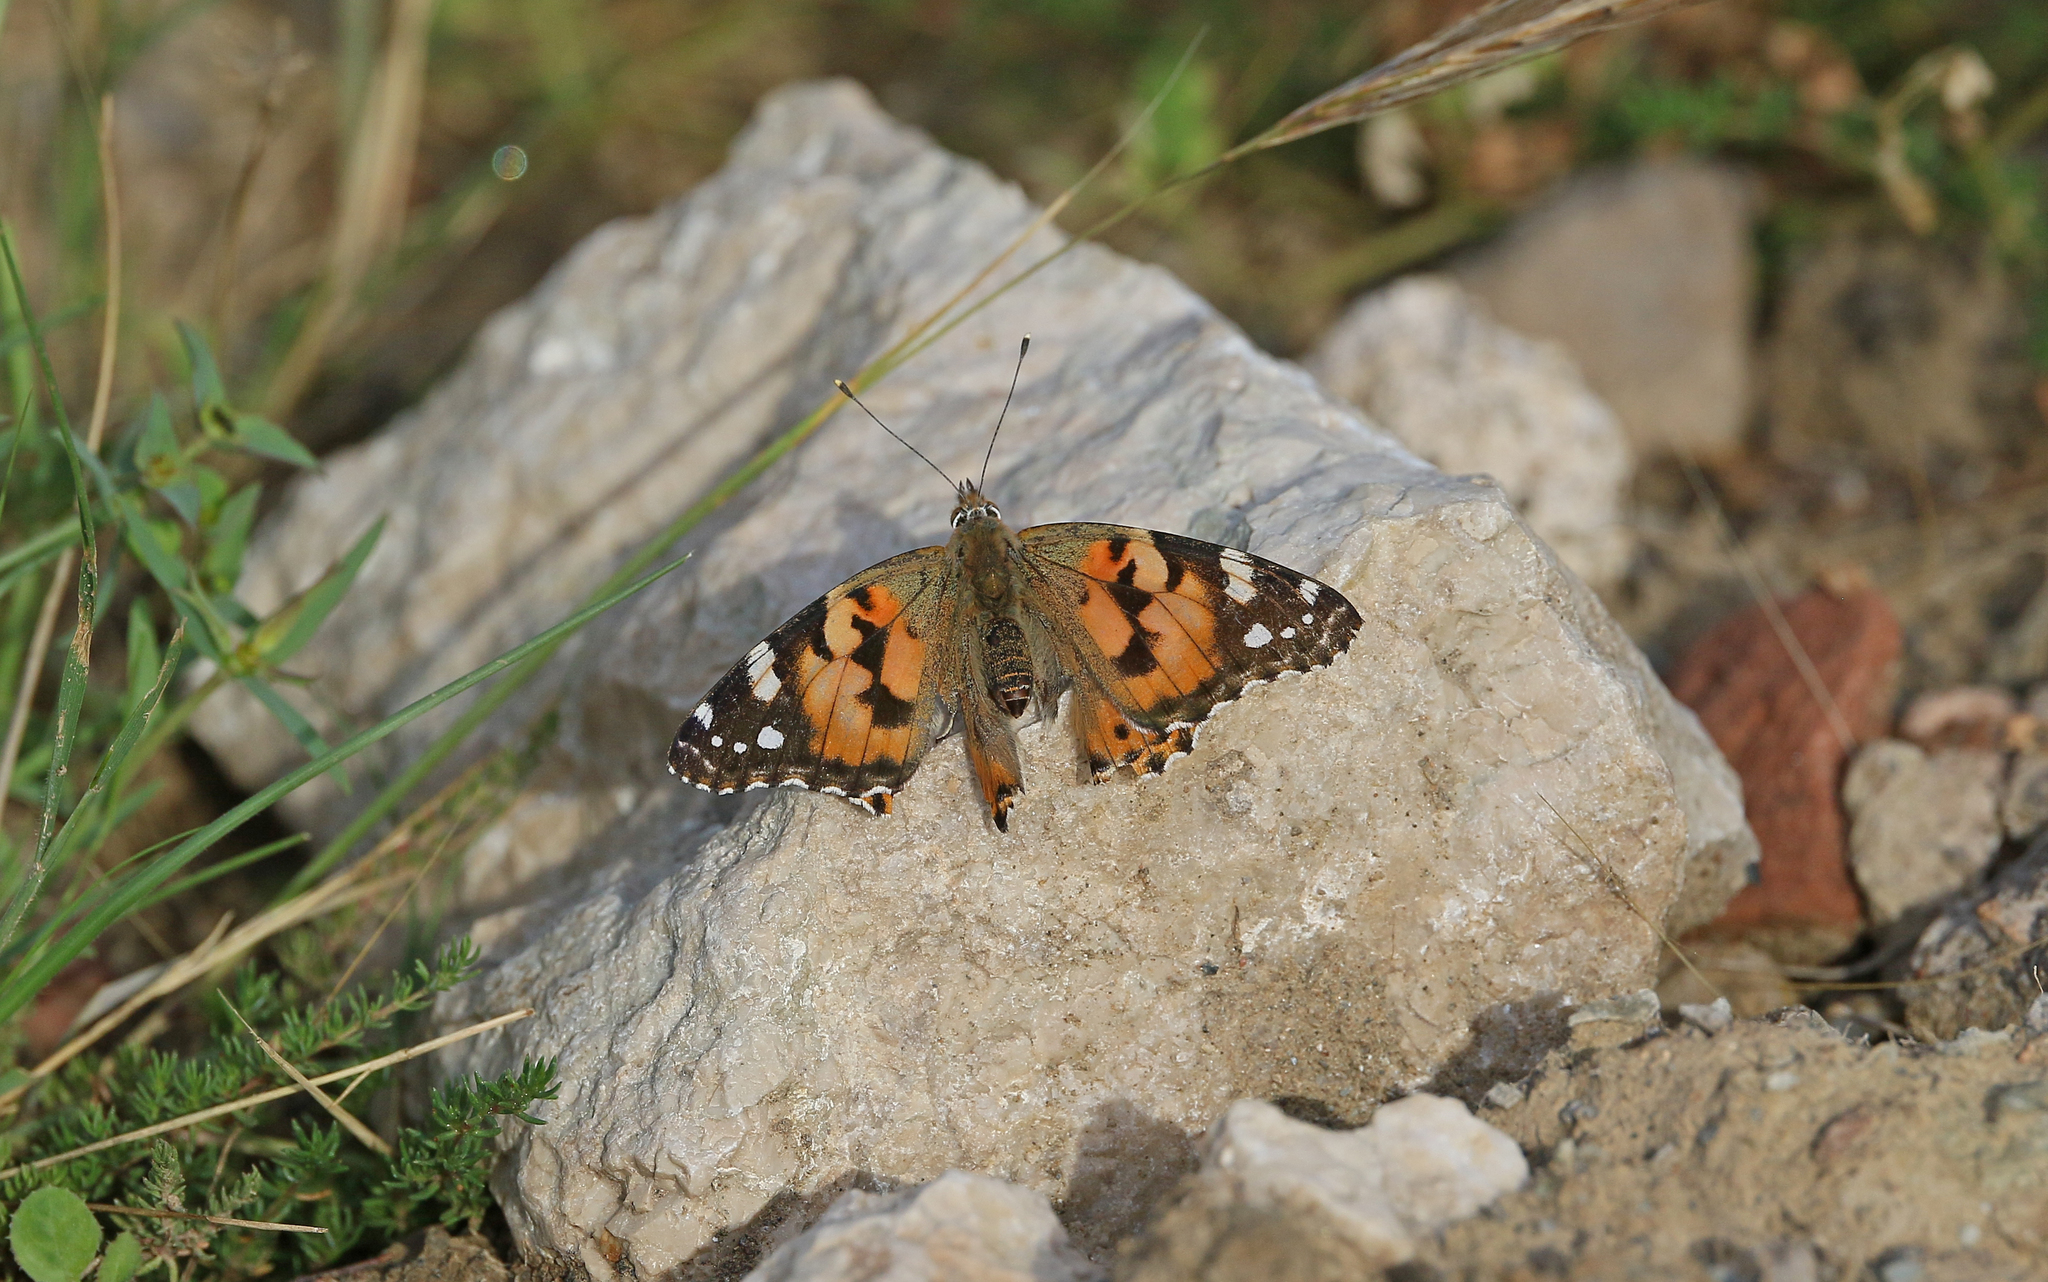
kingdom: Animalia
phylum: Arthropoda
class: Insecta
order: Lepidoptera
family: Nymphalidae
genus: Vanessa
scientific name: Vanessa cardui
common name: Painted lady
